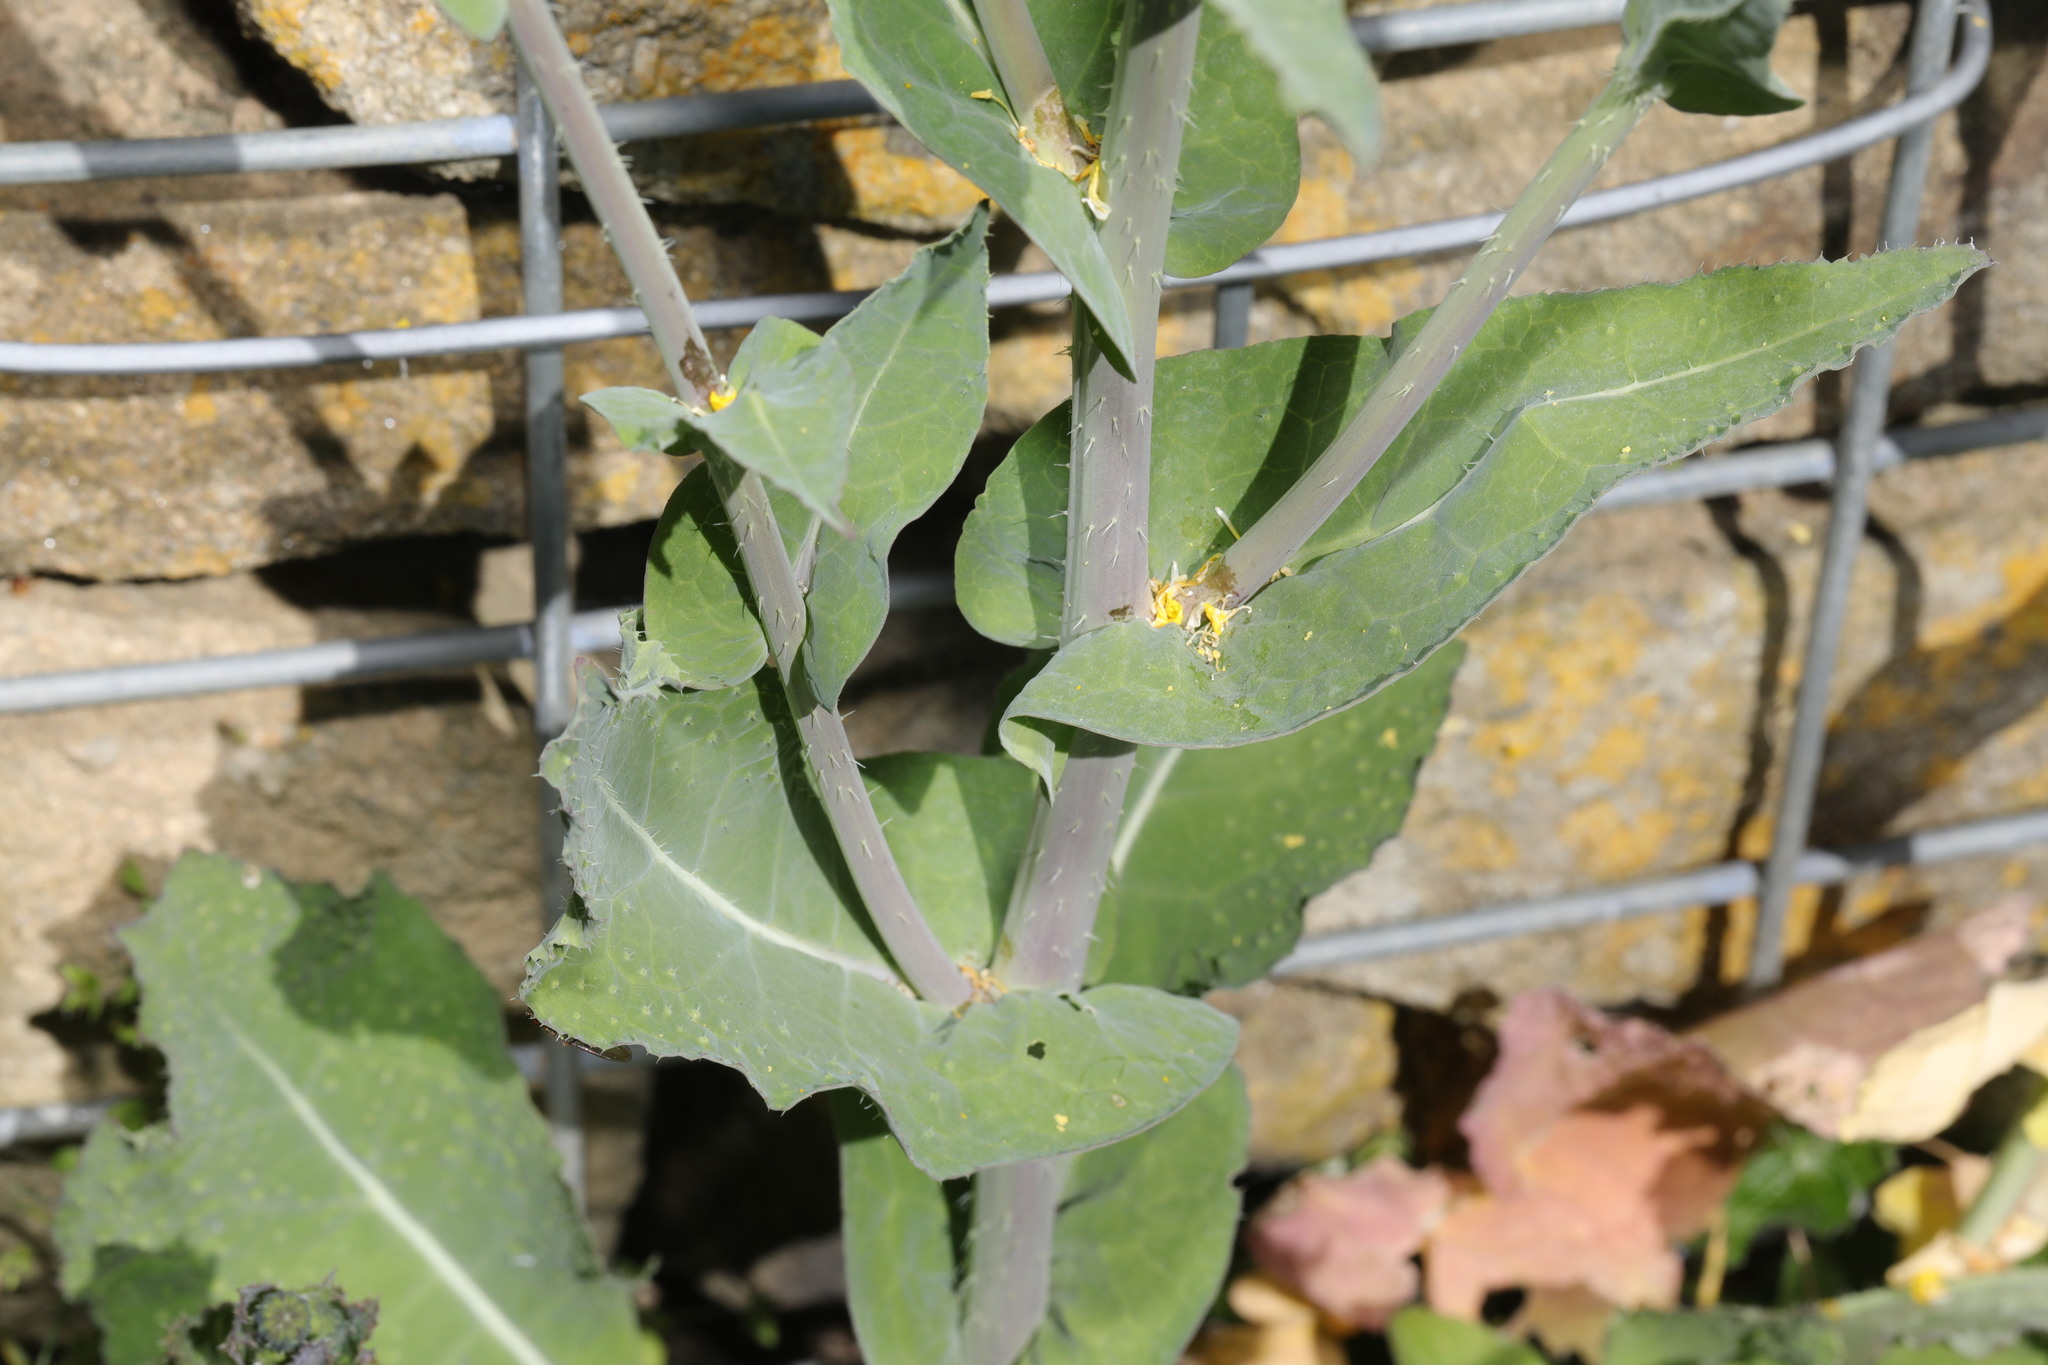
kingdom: Plantae
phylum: Tracheophyta
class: Magnoliopsida
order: Brassicales
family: Brassicaceae
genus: Brassica
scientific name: Brassica rapa
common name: Field mustard
